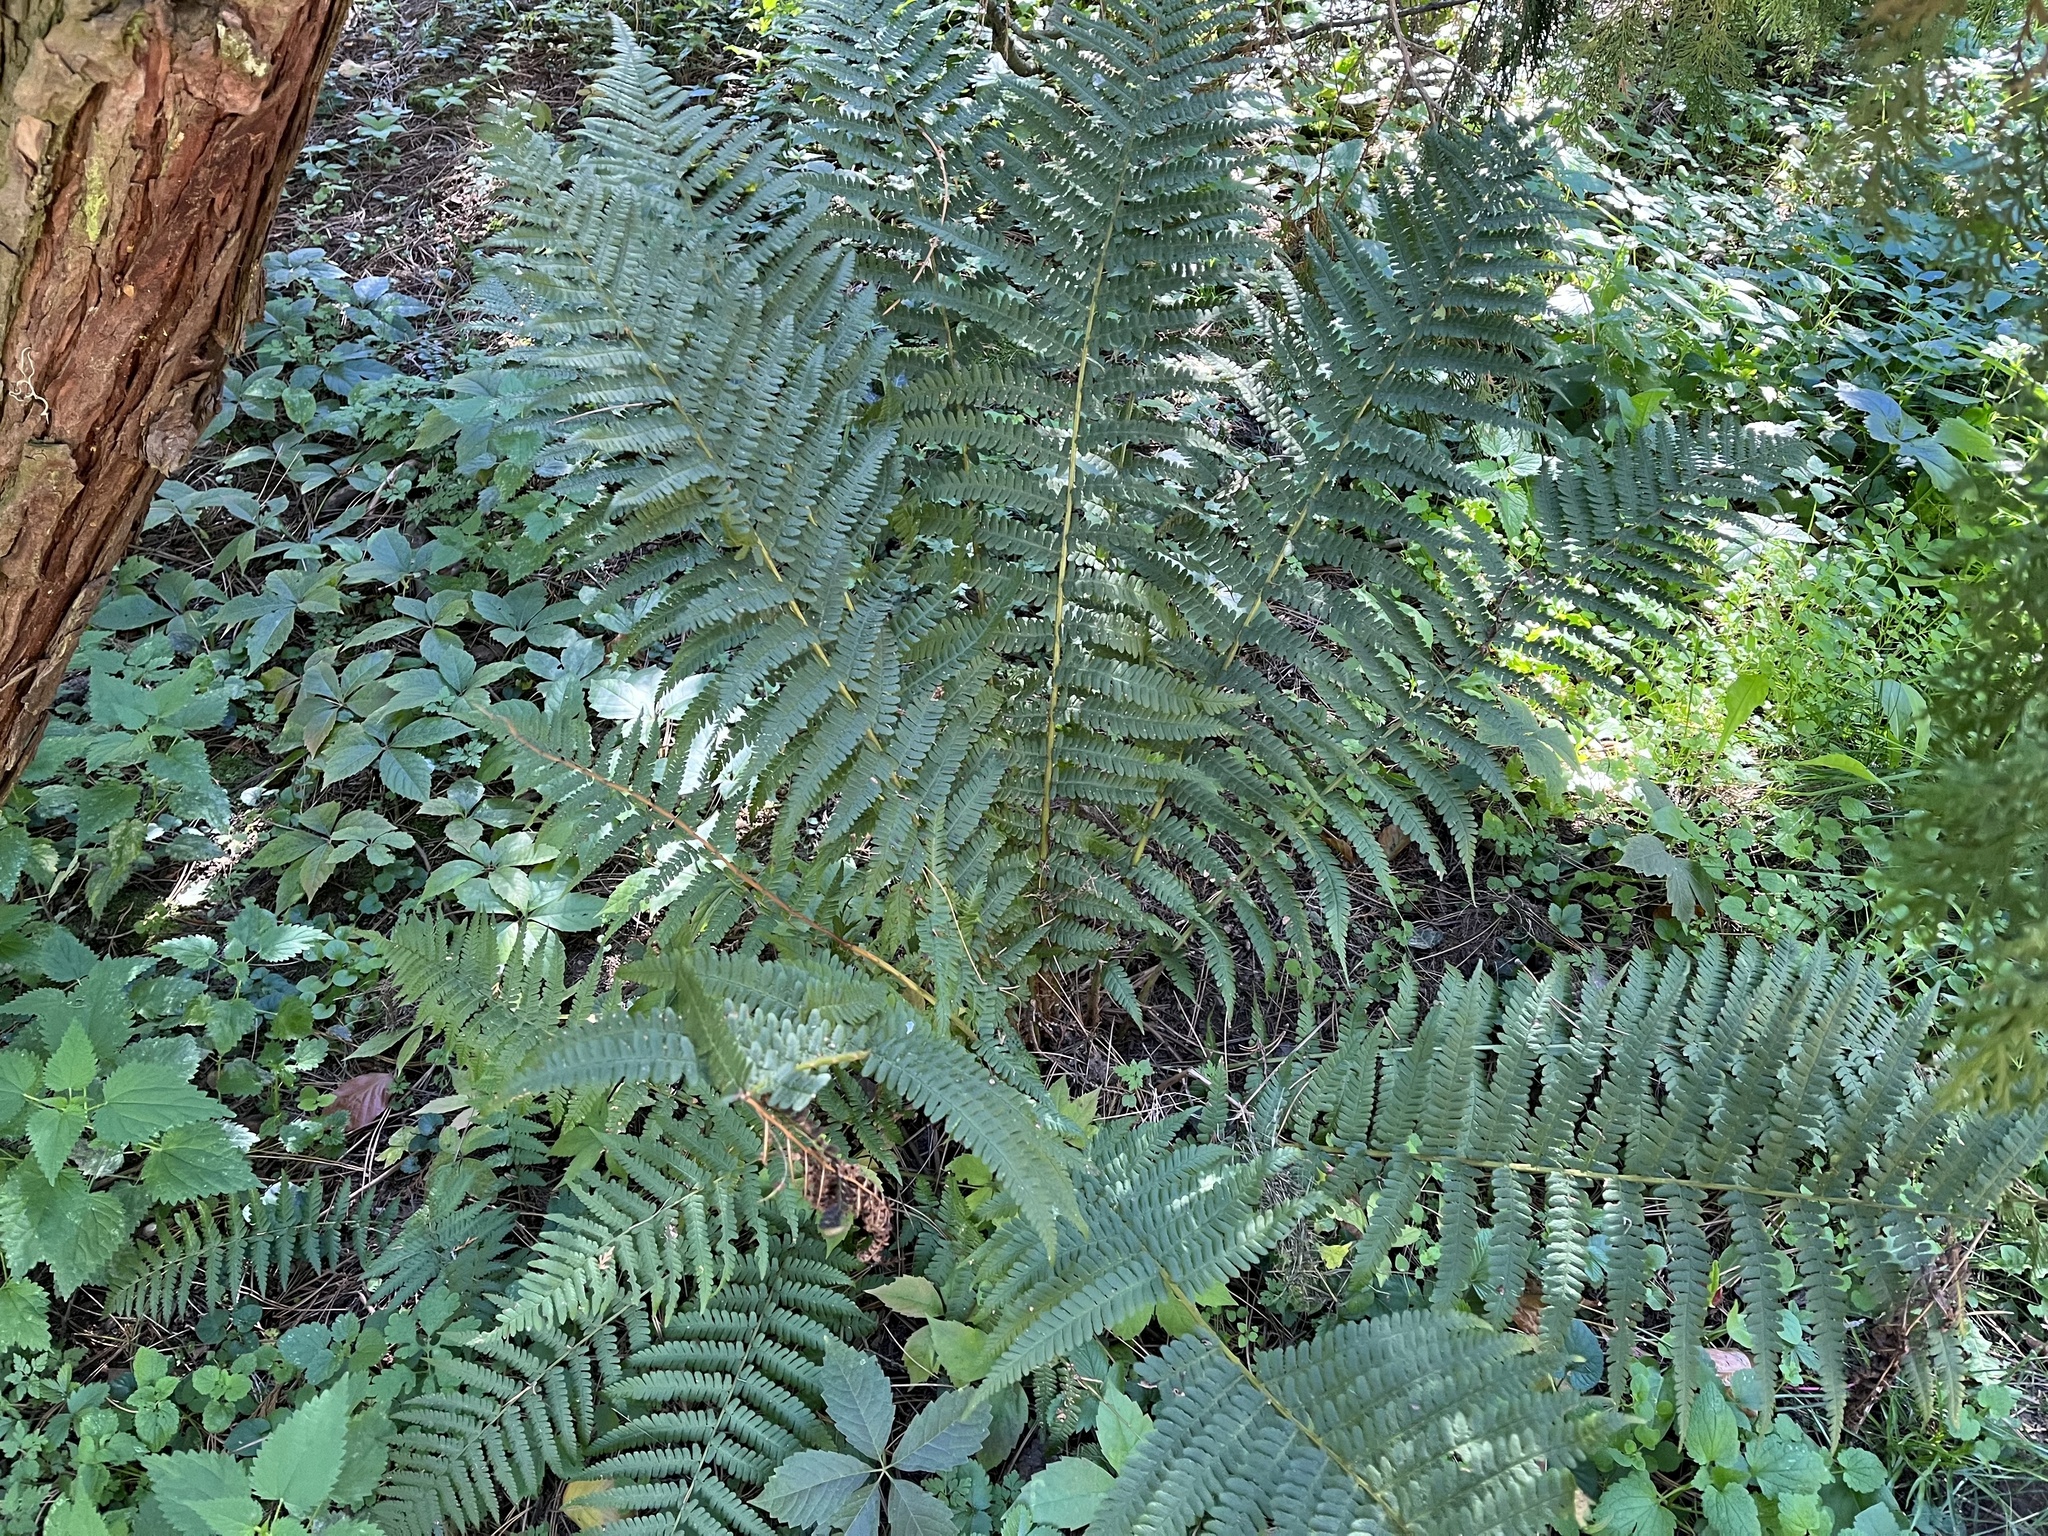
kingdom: Plantae
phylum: Tracheophyta
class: Polypodiopsida
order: Polypodiales
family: Dryopteridaceae
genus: Dryopteris
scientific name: Dryopteris filix-mas
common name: Male fern
